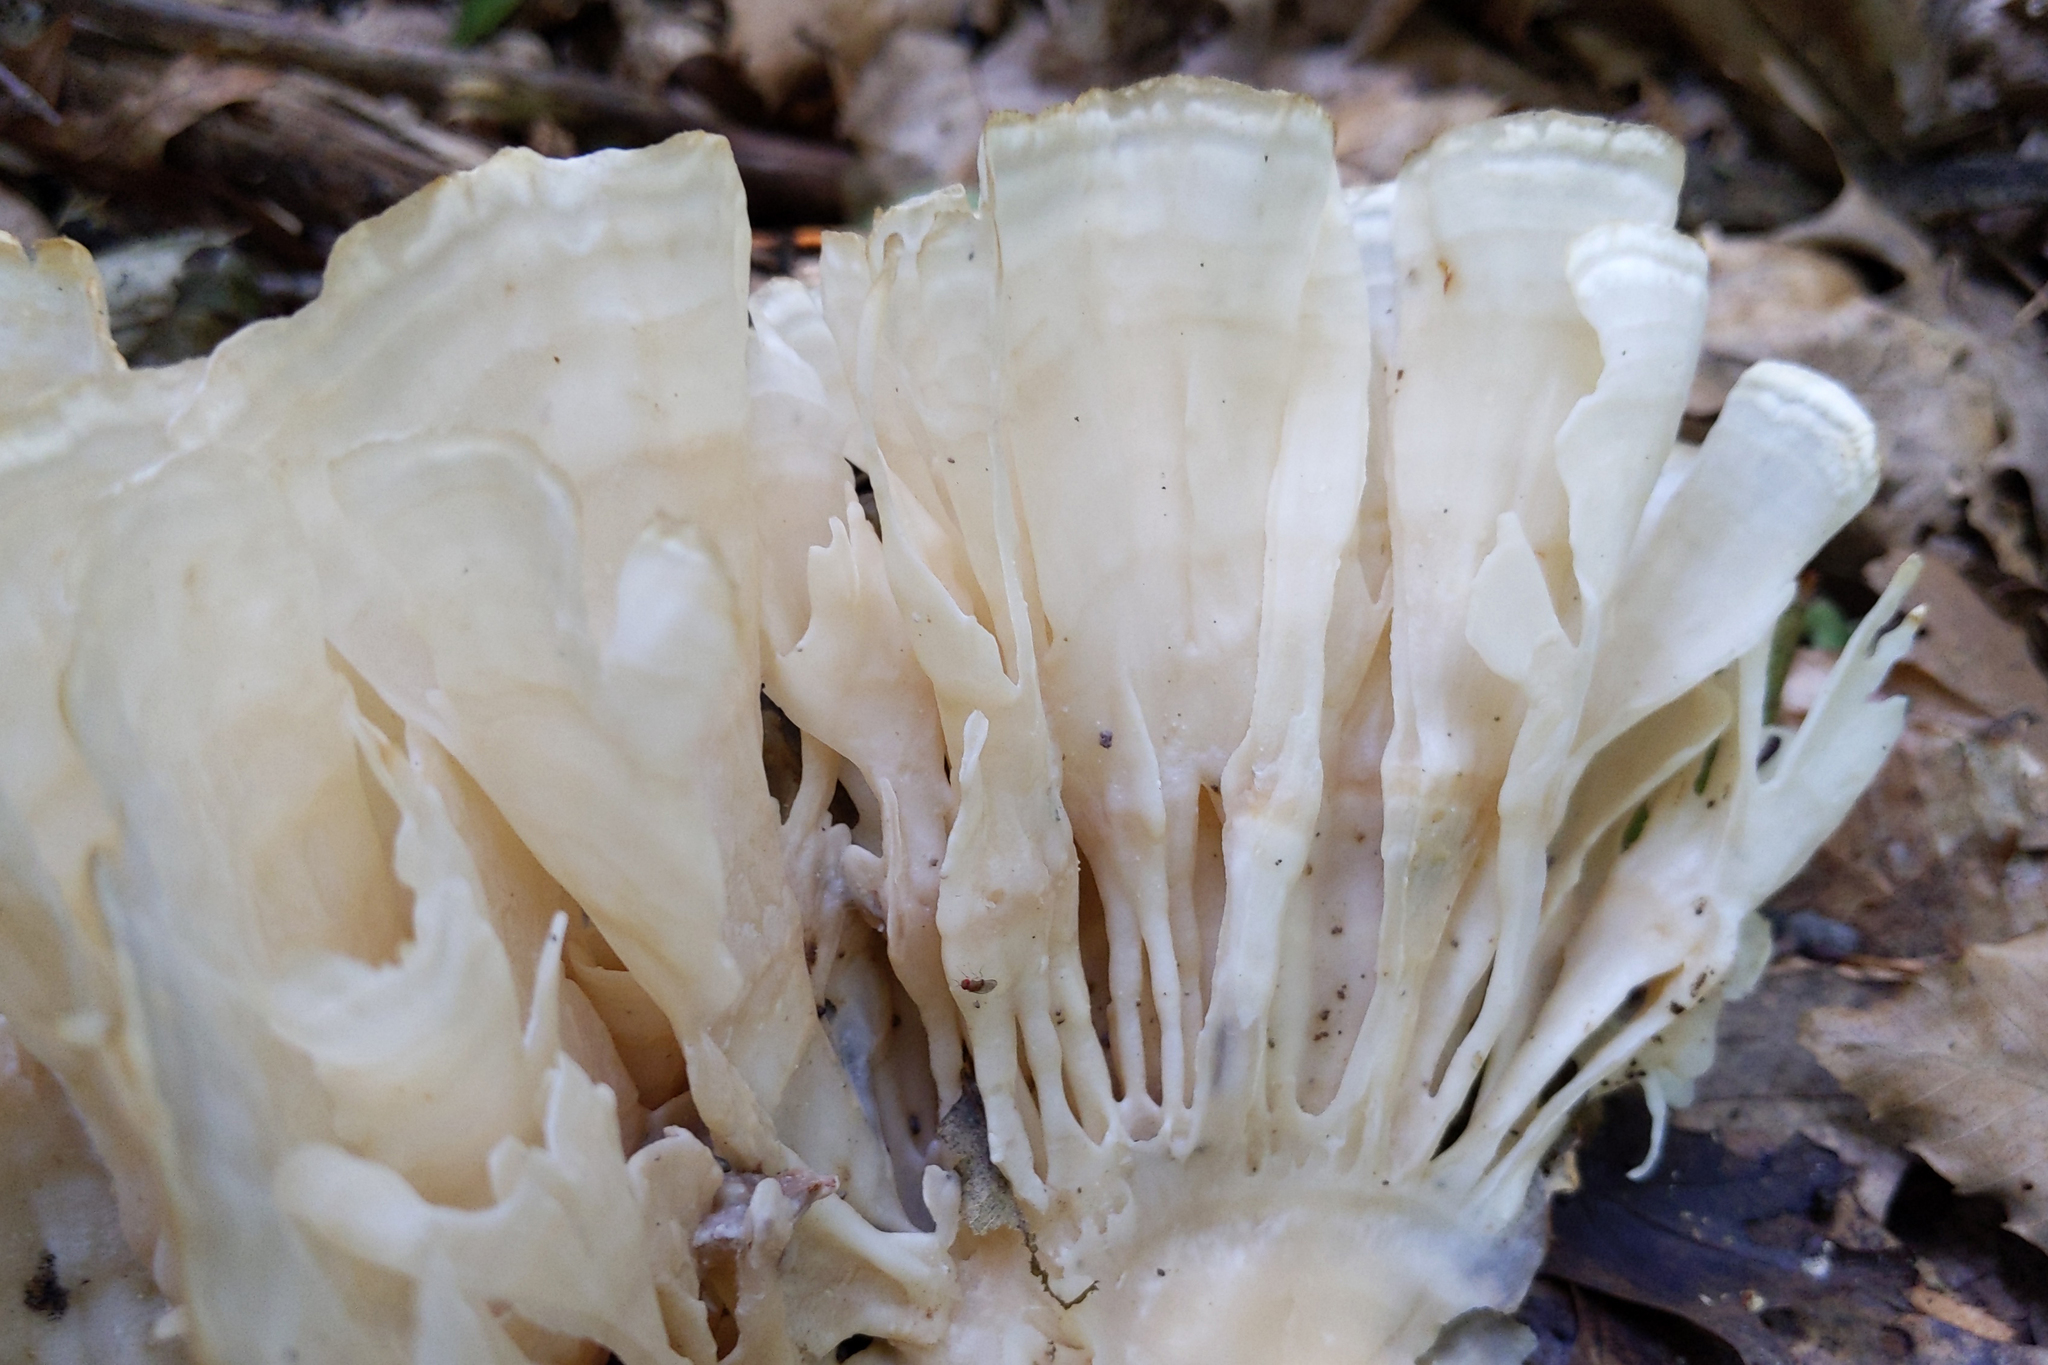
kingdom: Fungi
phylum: Basidiomycota
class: Agaricomycetes
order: Polyporales
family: Sparassidaceae
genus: Sparassis
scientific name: Sparassis spathulata
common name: Eastern cauliflower mushroom
